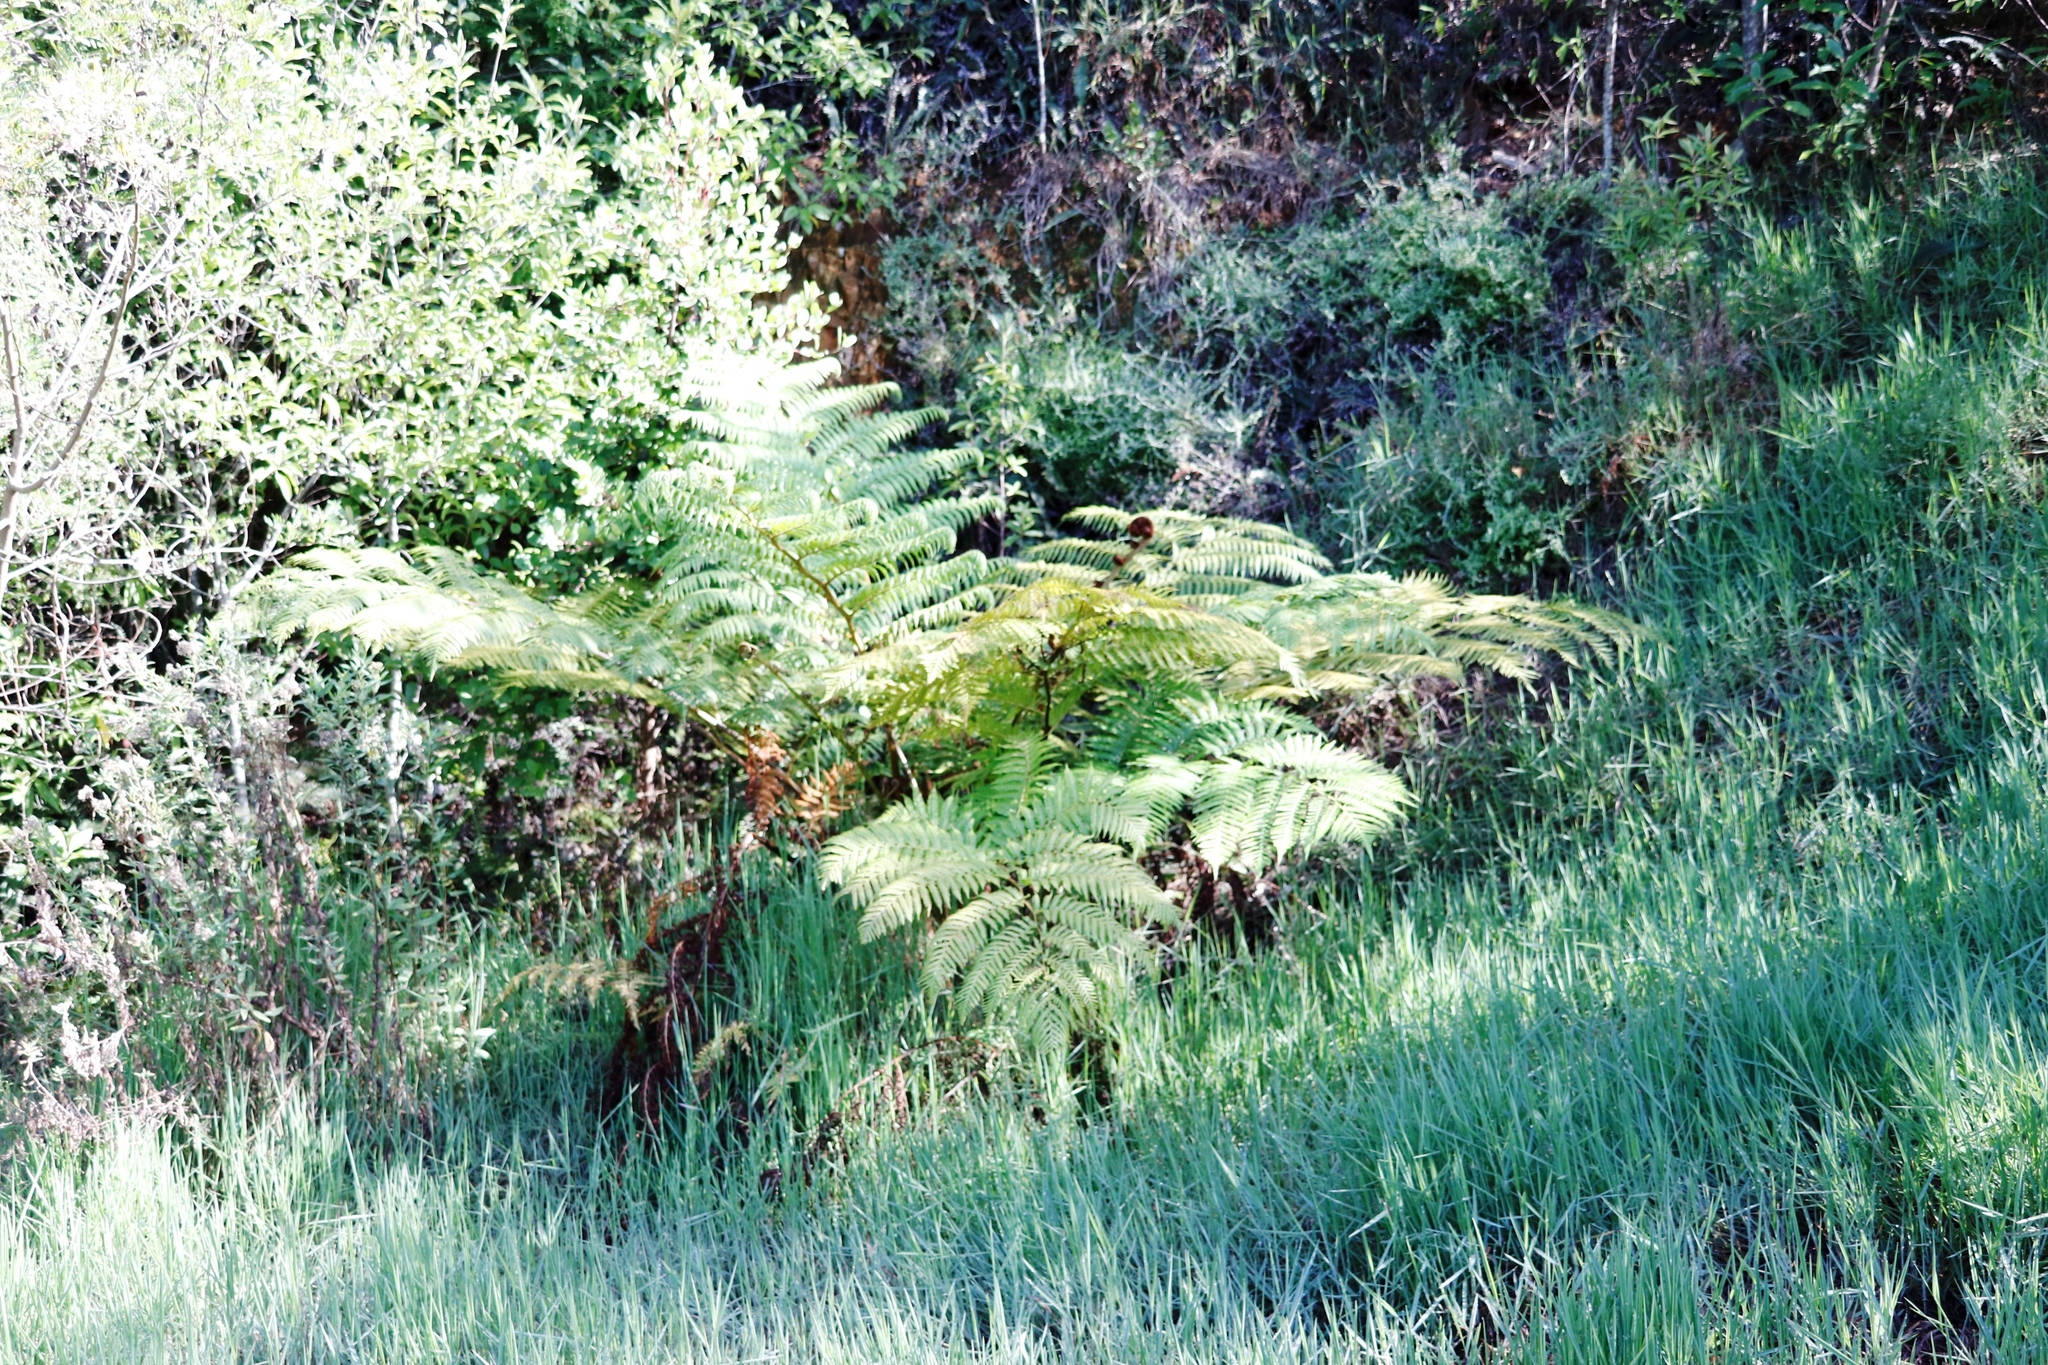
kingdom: Plantae
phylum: Tracheophyta
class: Polypodiopsida
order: Cyatheales
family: Cyatheaceae
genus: Sphaeropteris
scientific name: Sphaeropteris cooperi
